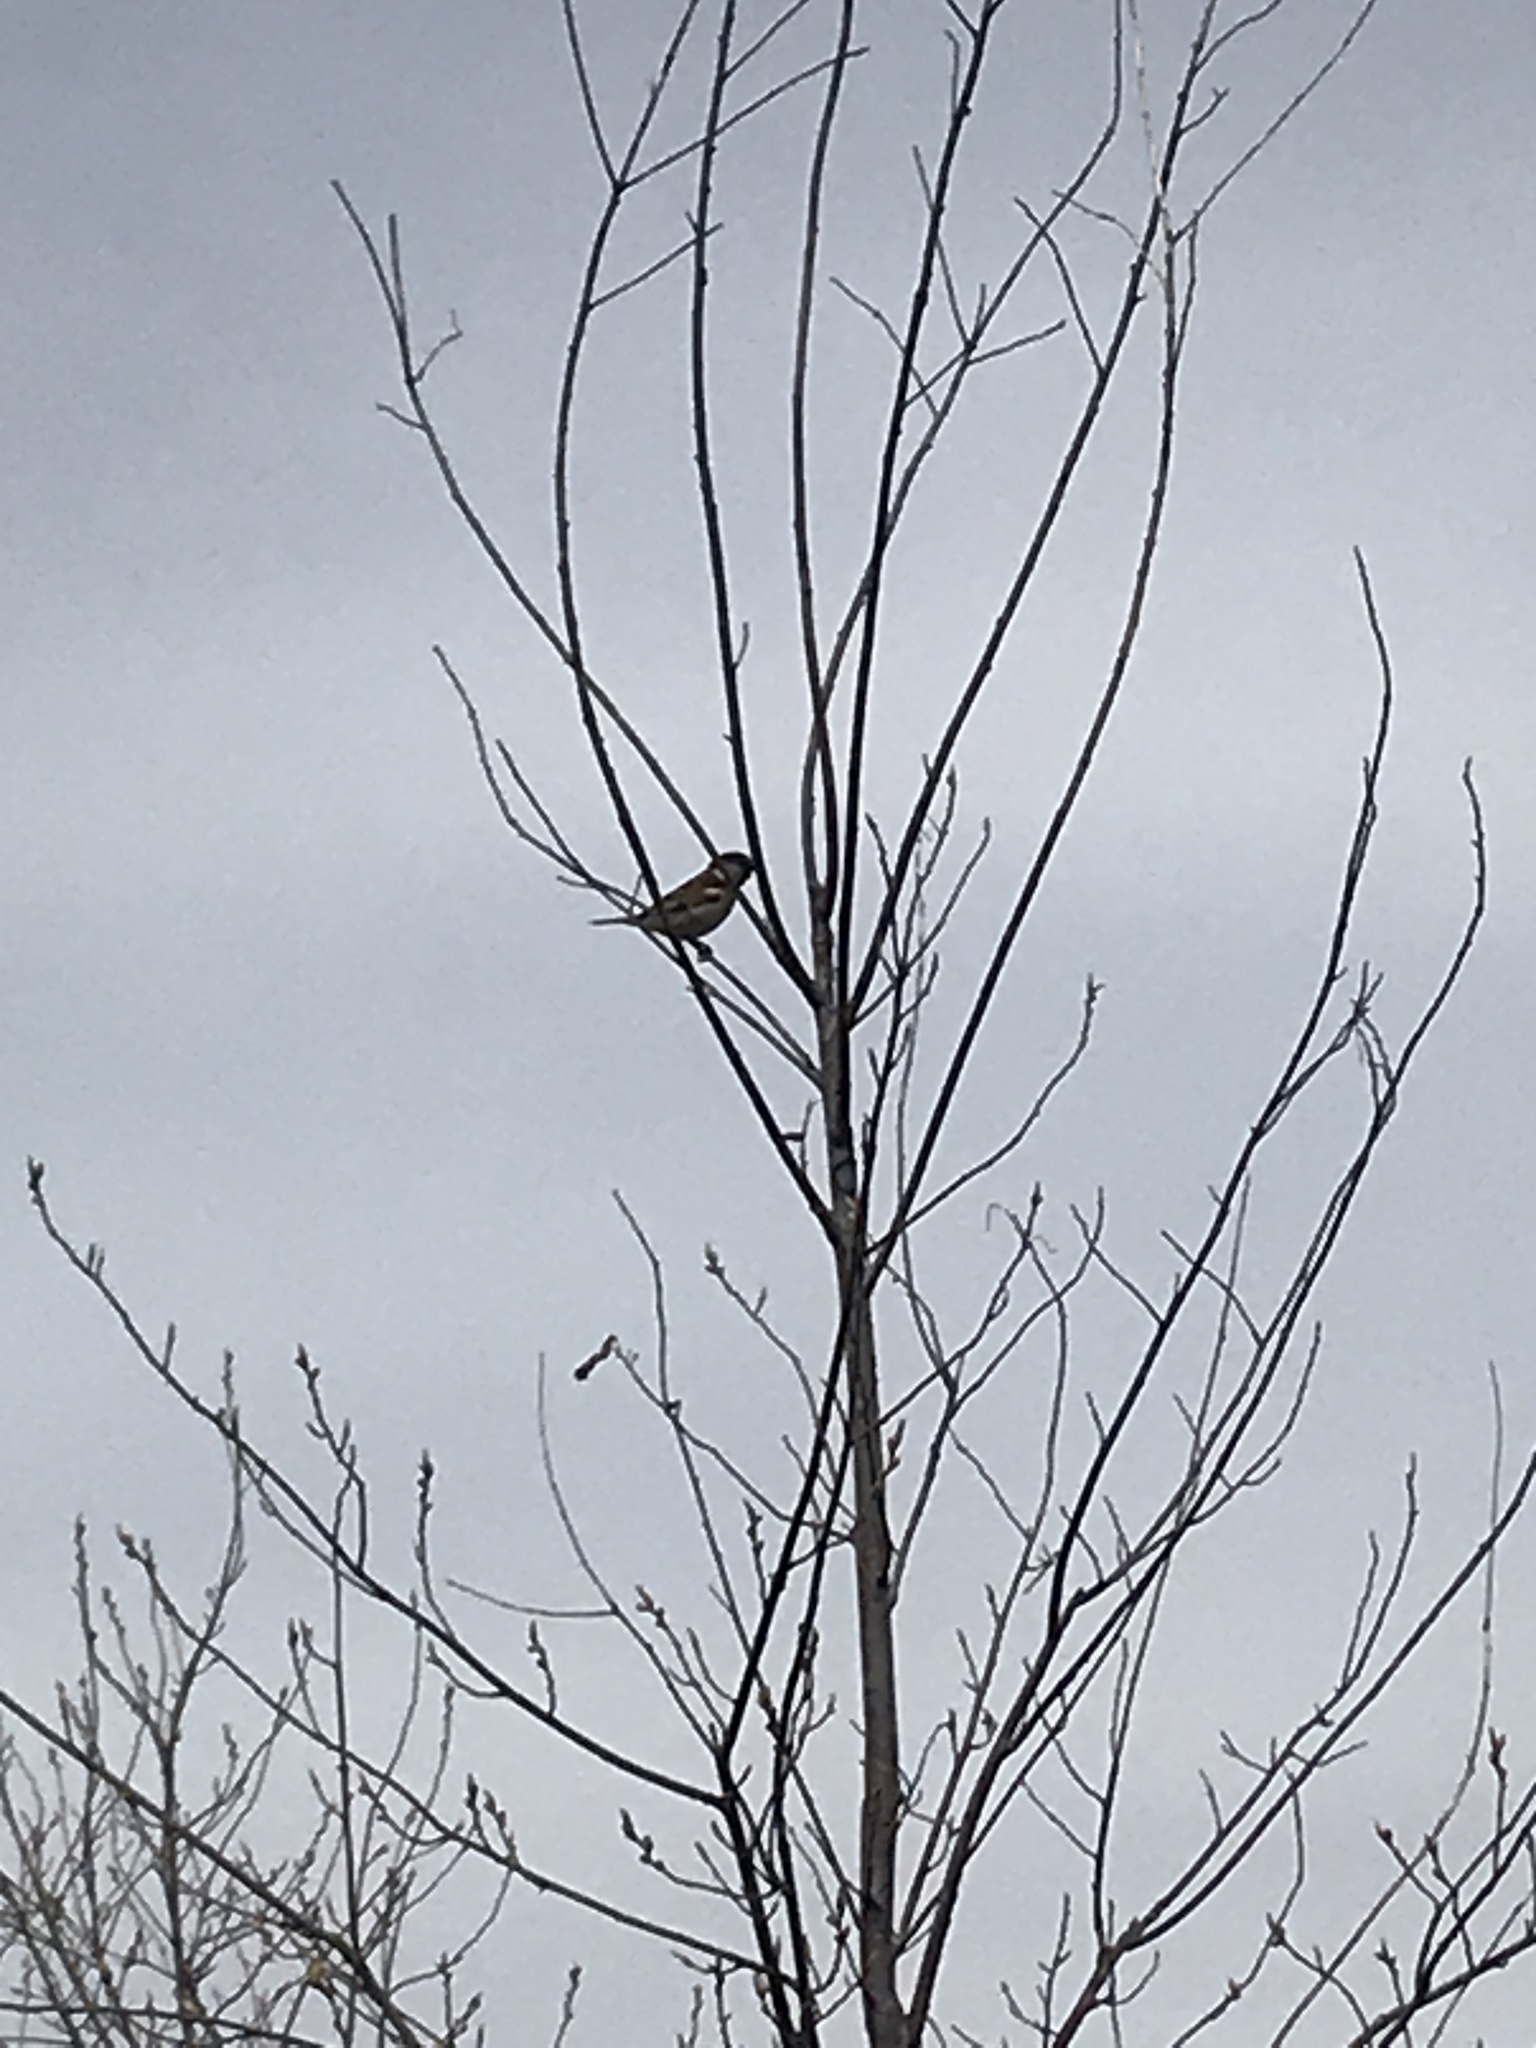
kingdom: Animalia
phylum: Chordata
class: Aves
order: Passeriformes
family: Passeridae
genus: Passer
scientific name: Passer domesticus
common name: House sparrow
